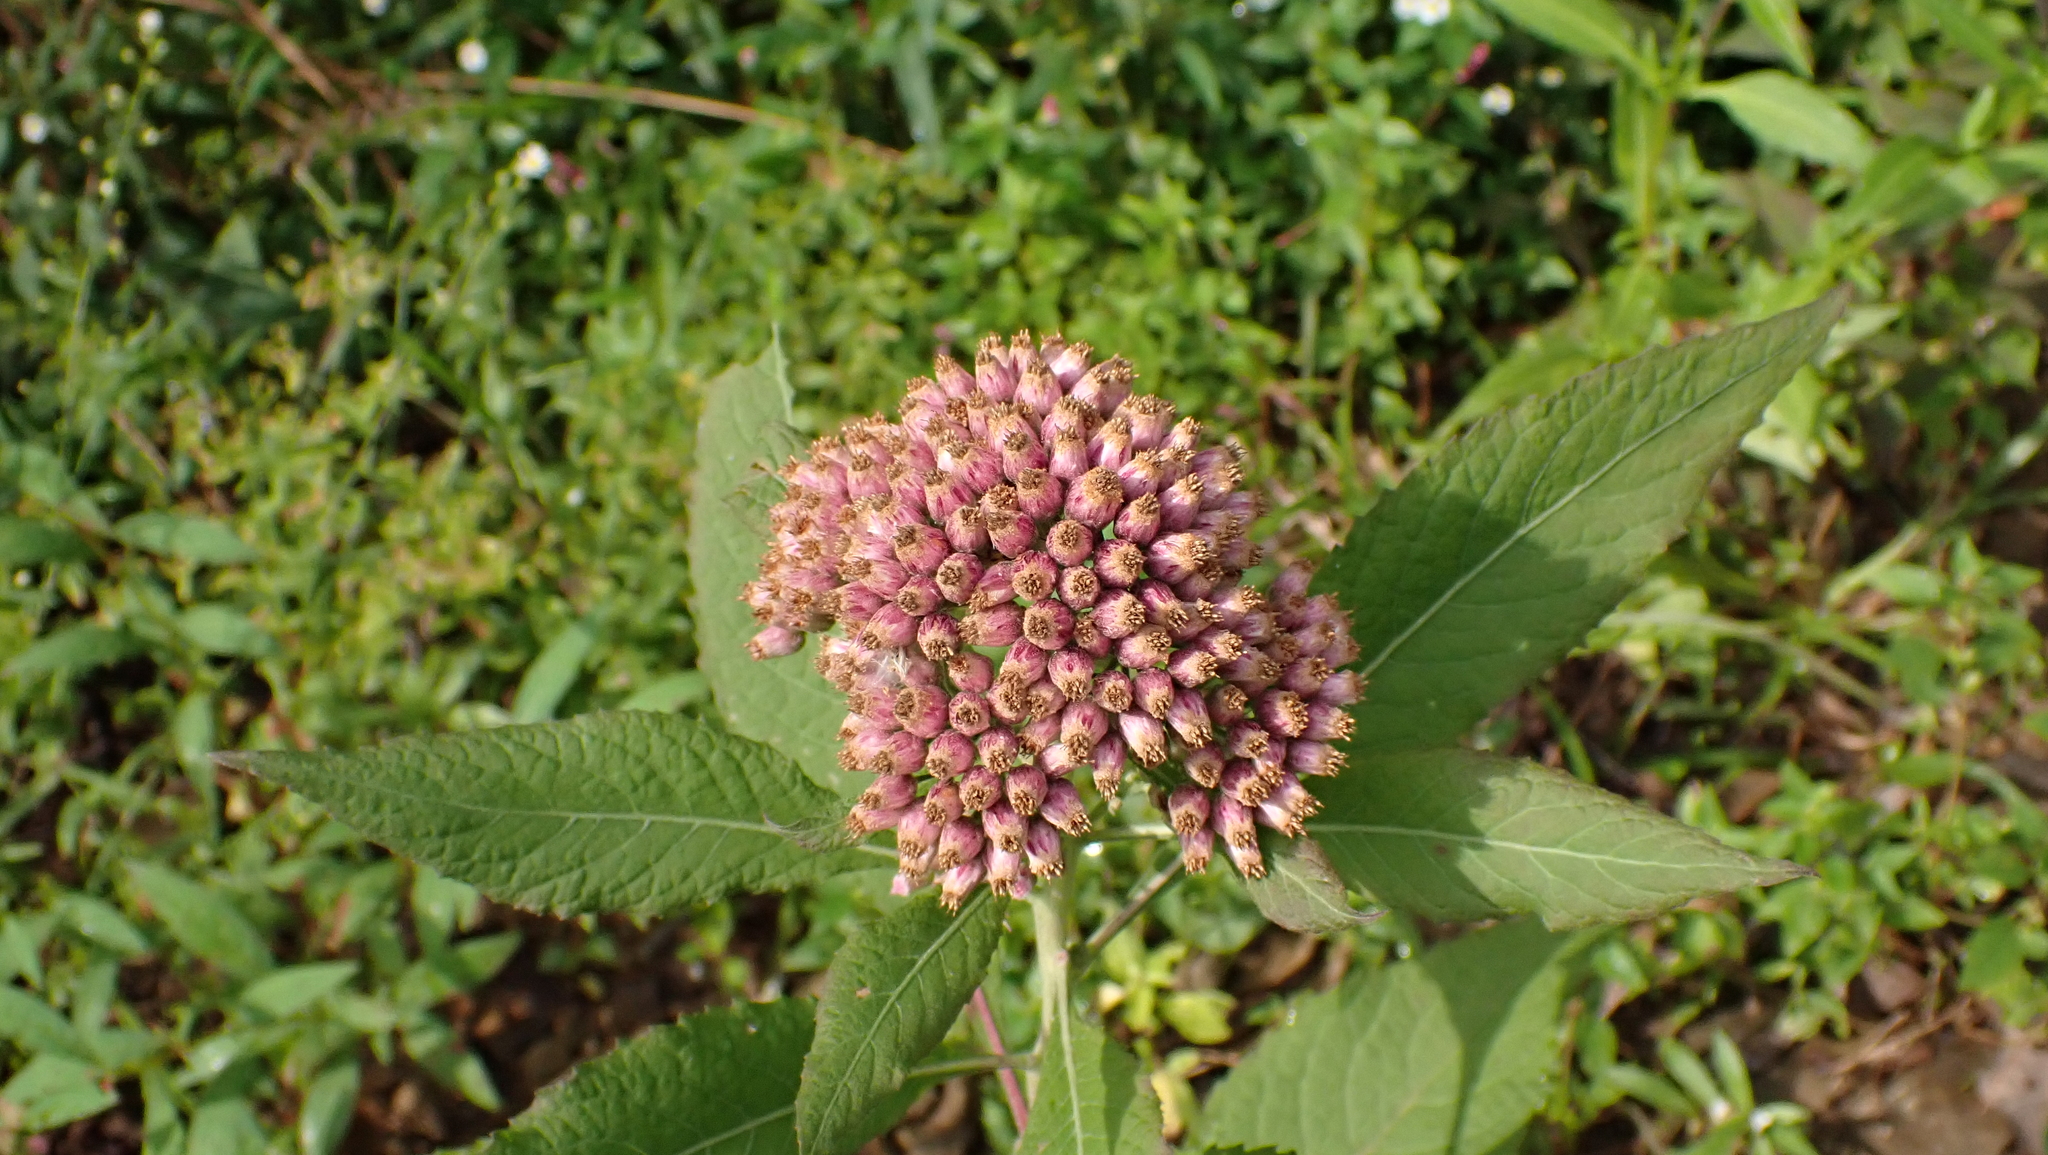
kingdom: Plantae
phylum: Tracheophyta
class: Magnoliopsida
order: Asterales
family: Asteraceae
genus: Pluchea
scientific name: Pluchea camphorata
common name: Camphor pluchea
